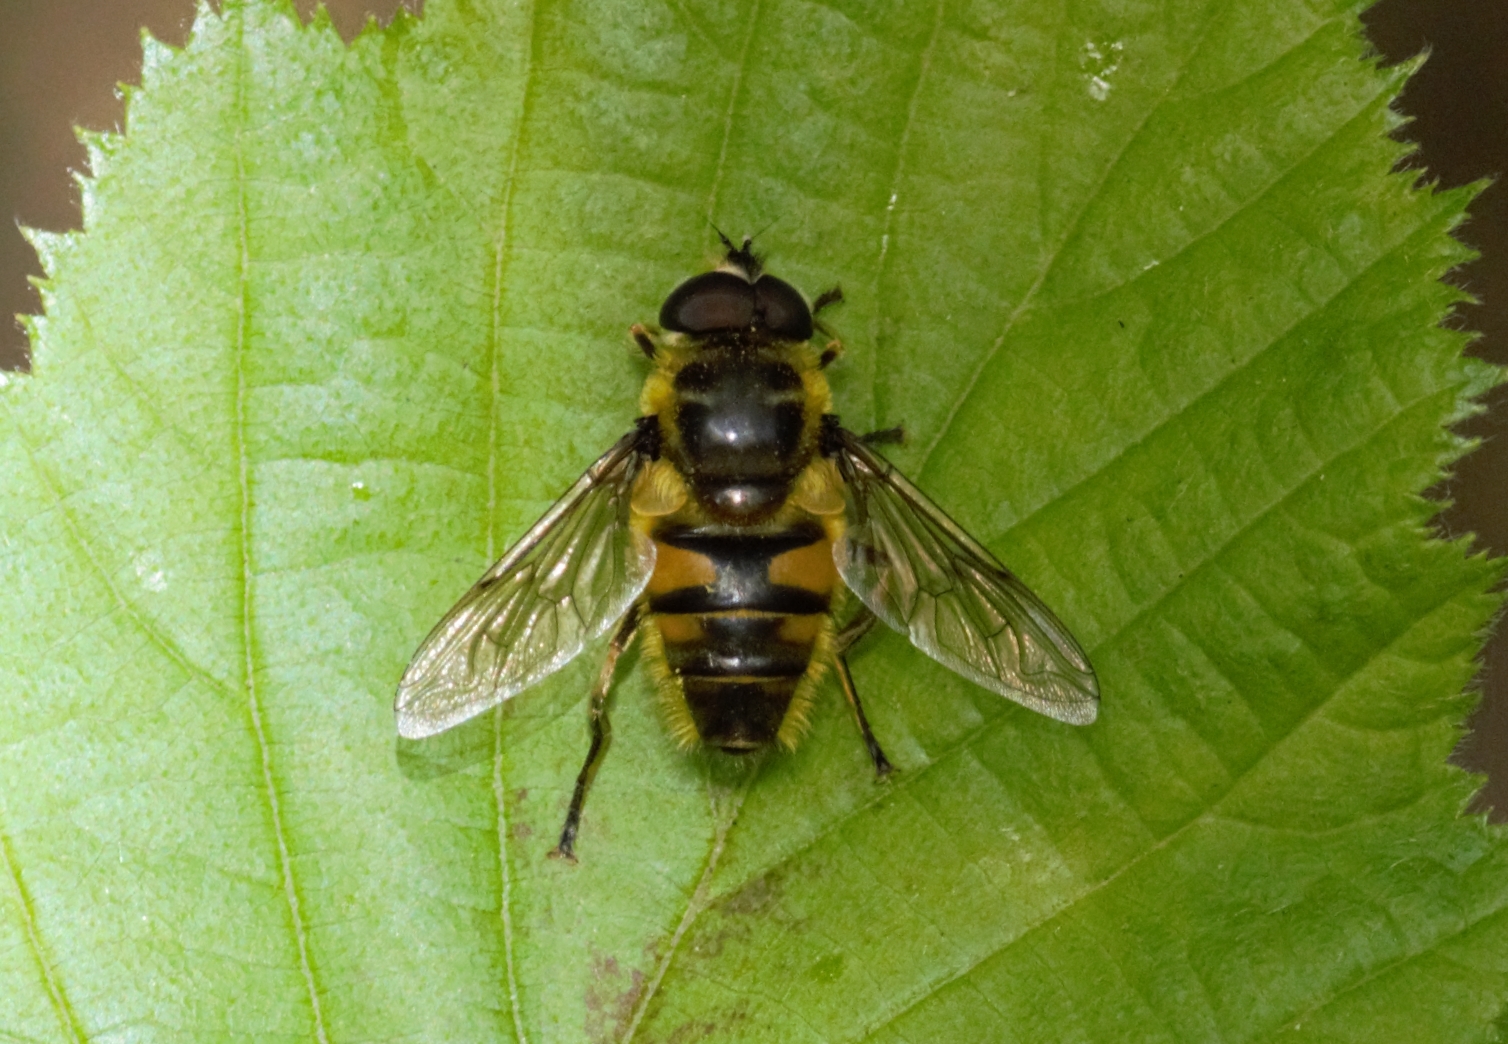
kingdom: Animalia
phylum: Arthropoda
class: Insecta
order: Diptera
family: Syrphidae
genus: Myathropa
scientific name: Myathropa florea
